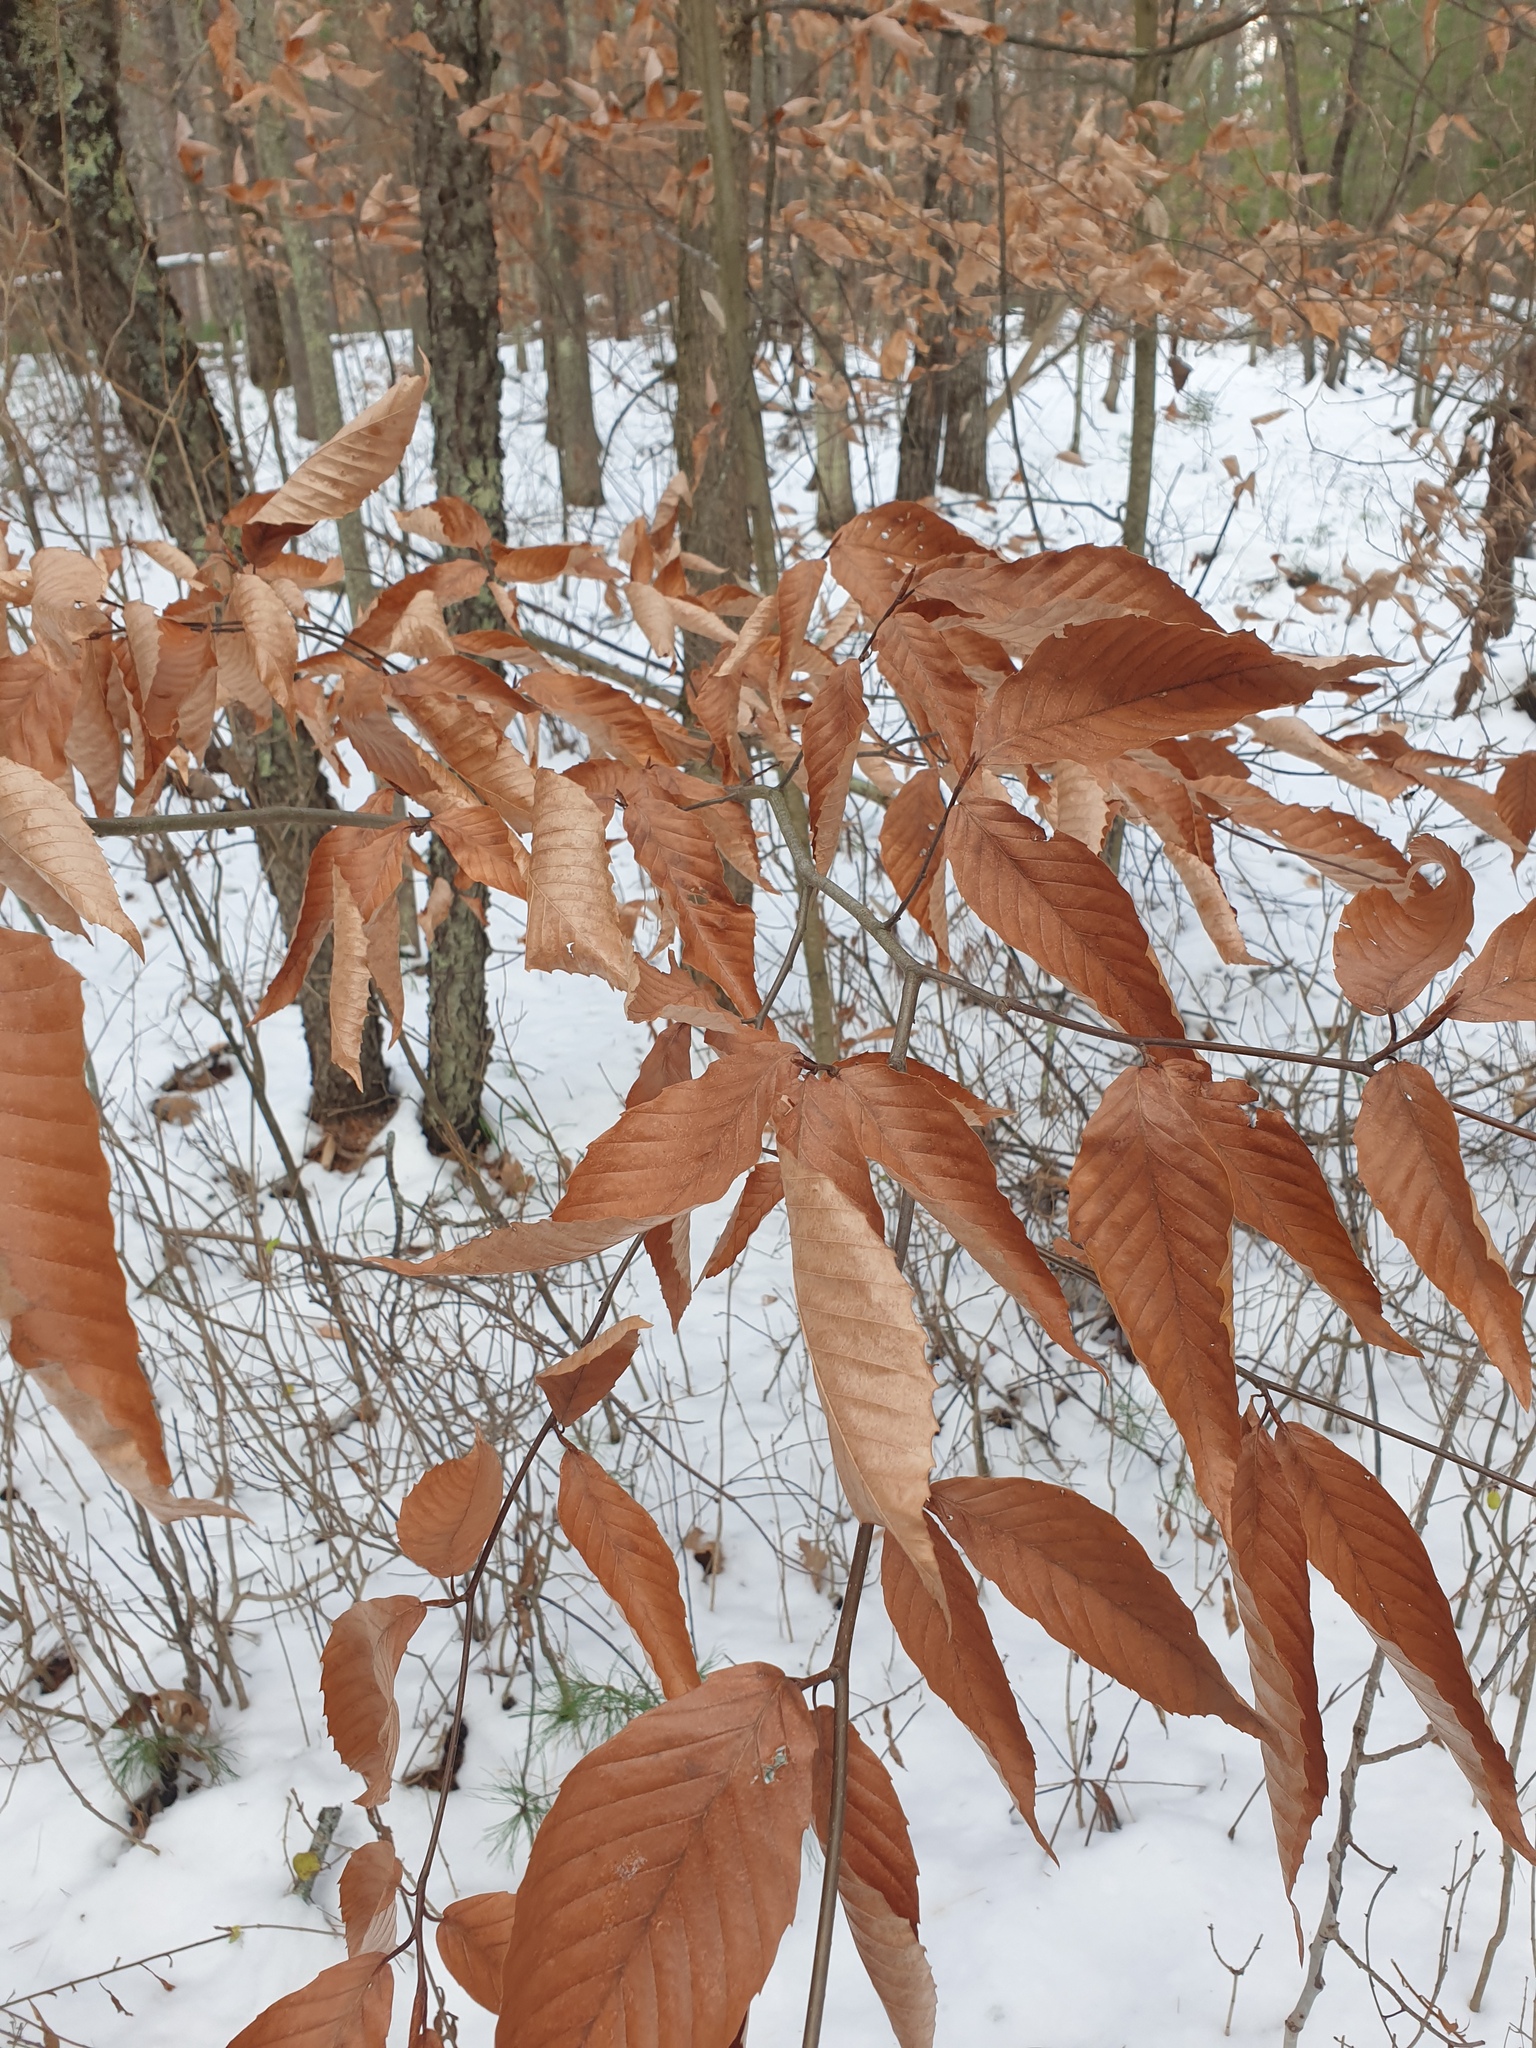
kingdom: Plantae
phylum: Tracheophyta
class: Magnoliopsida
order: Fagales
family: Fagaceae
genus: Fagus
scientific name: Fagus grandifolia
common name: American beech
